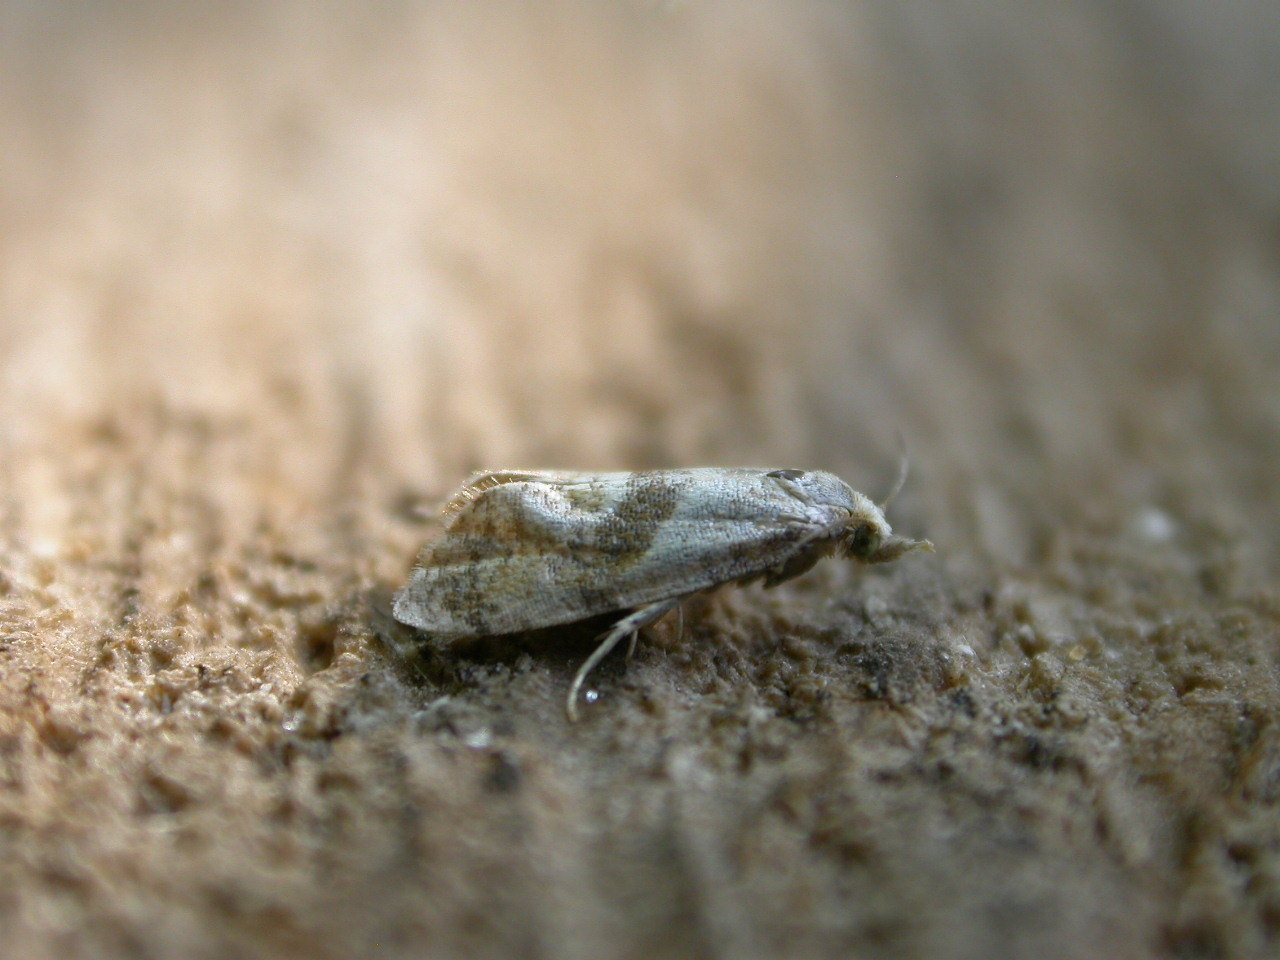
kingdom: Animalia
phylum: Arthropoda
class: Insecta
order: Lepidoptera
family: Tortricidae
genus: Cochylidia
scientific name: Cochylidia implicitana
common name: Chamomile conch
